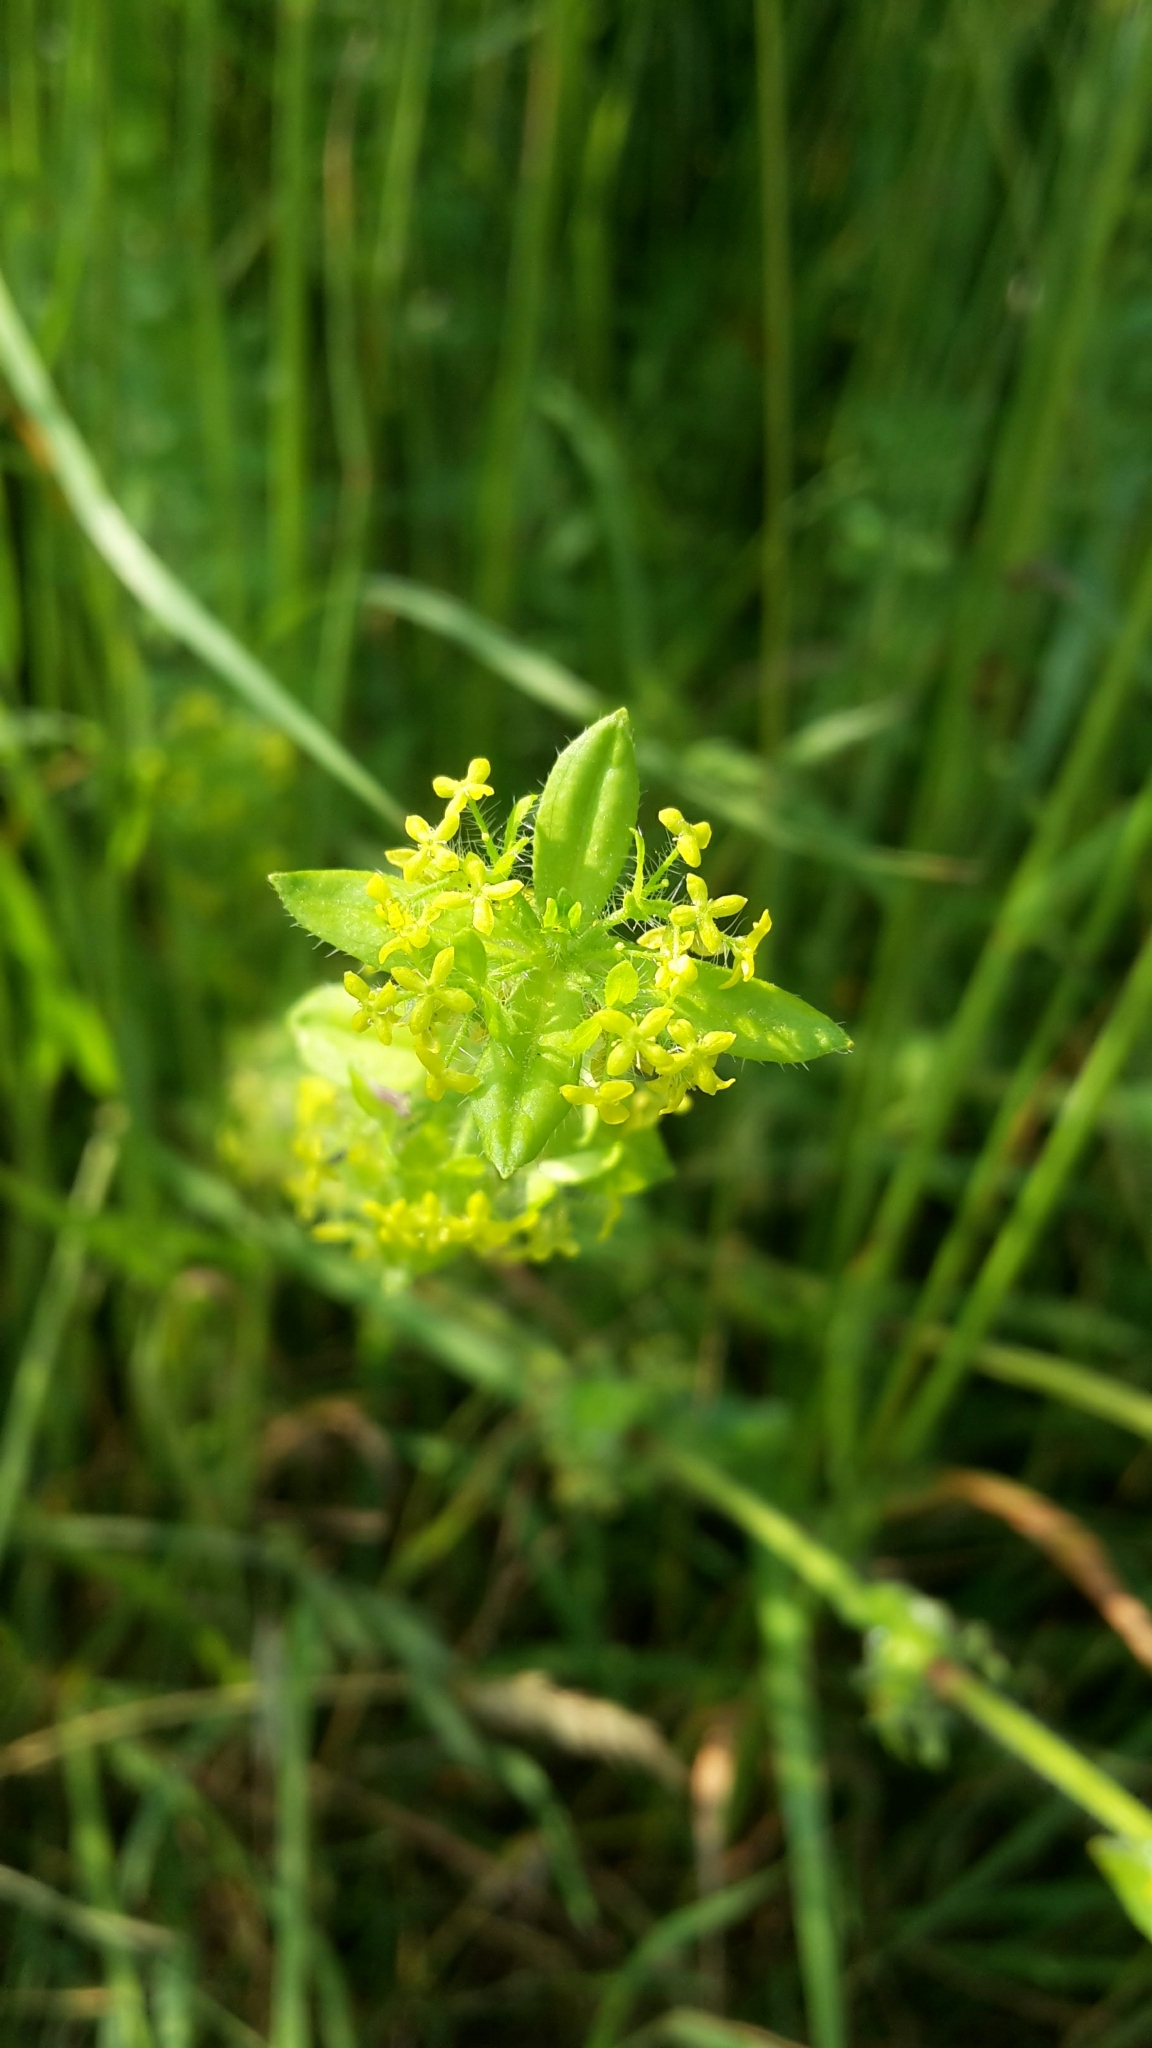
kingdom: Plantae
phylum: Tracheophyta
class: Magnoliopsida
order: Gentianales
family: Rubiaceae
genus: Cruciata
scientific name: Cruciata laevipes
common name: Crosswort
